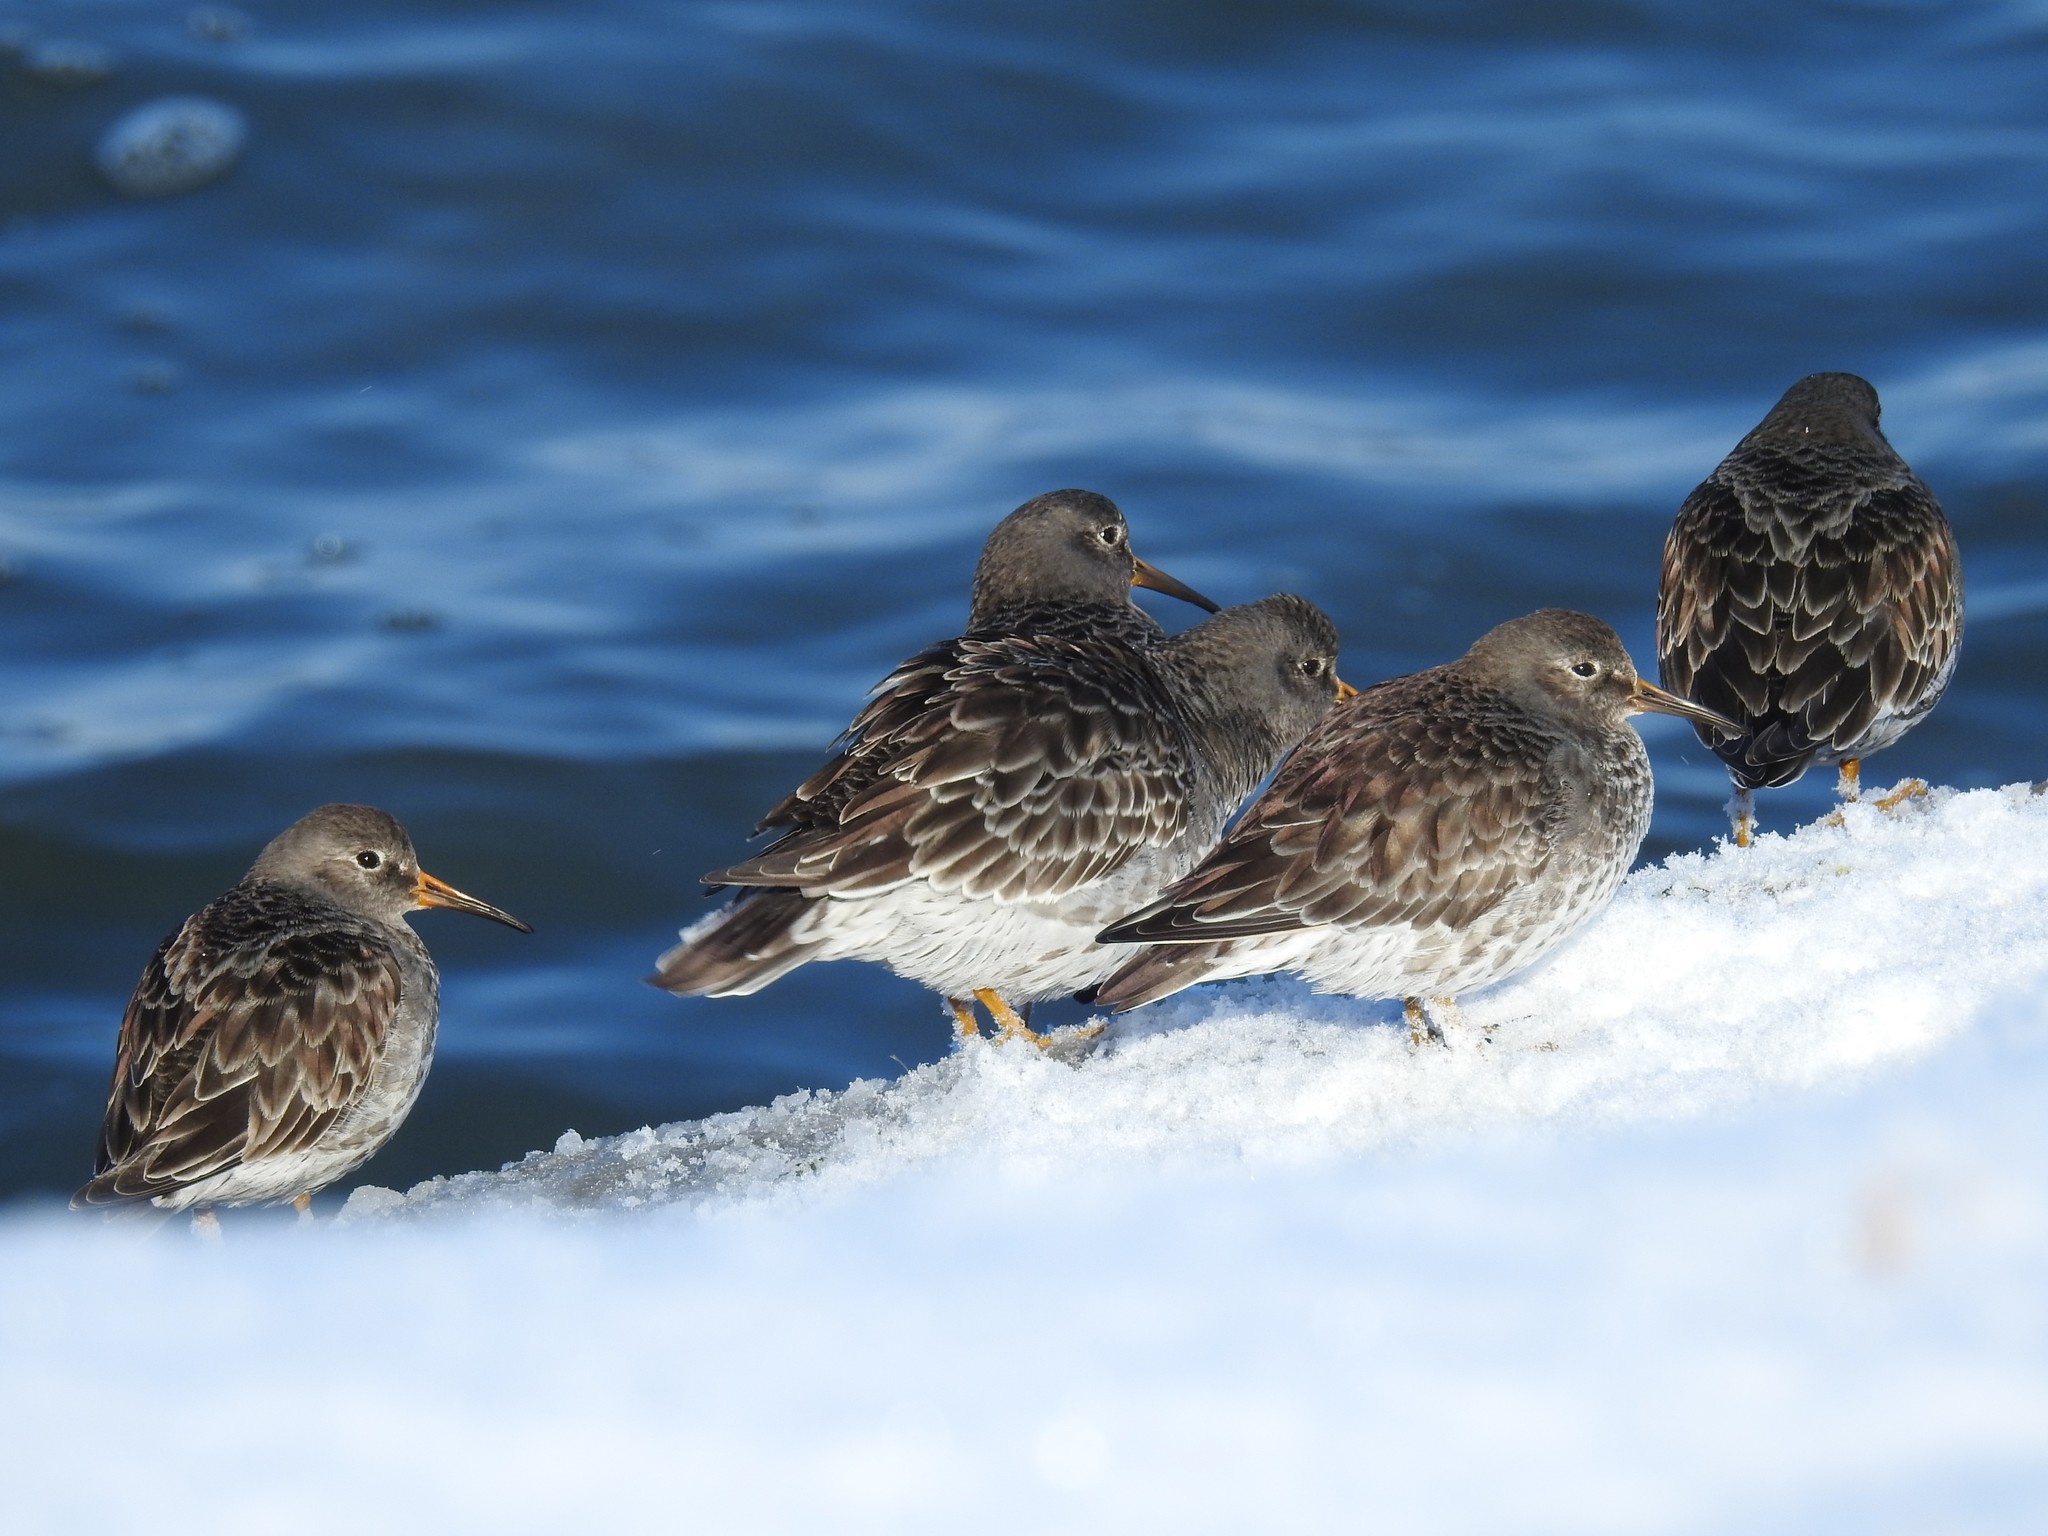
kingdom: Animalia
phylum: Chordata
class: Aves
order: Charadriiformes
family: Scolopacidae
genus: Calidris
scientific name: Calidris maritima
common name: Purple sandpiper
